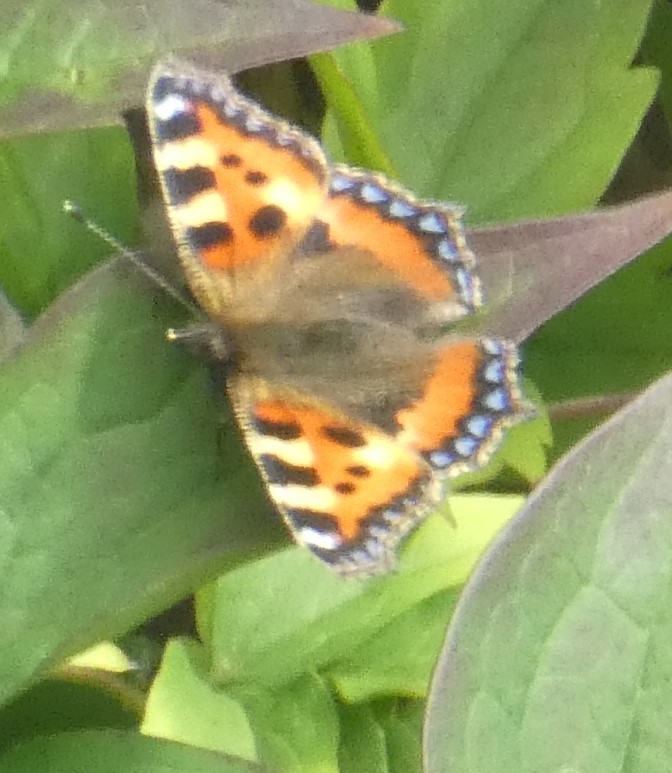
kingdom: Animalia
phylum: Arthropoda
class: Insecta
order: Lepidoptera
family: Nymphalidae
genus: Aglais
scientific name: Aglais urticae
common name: Small tortoiseshell
